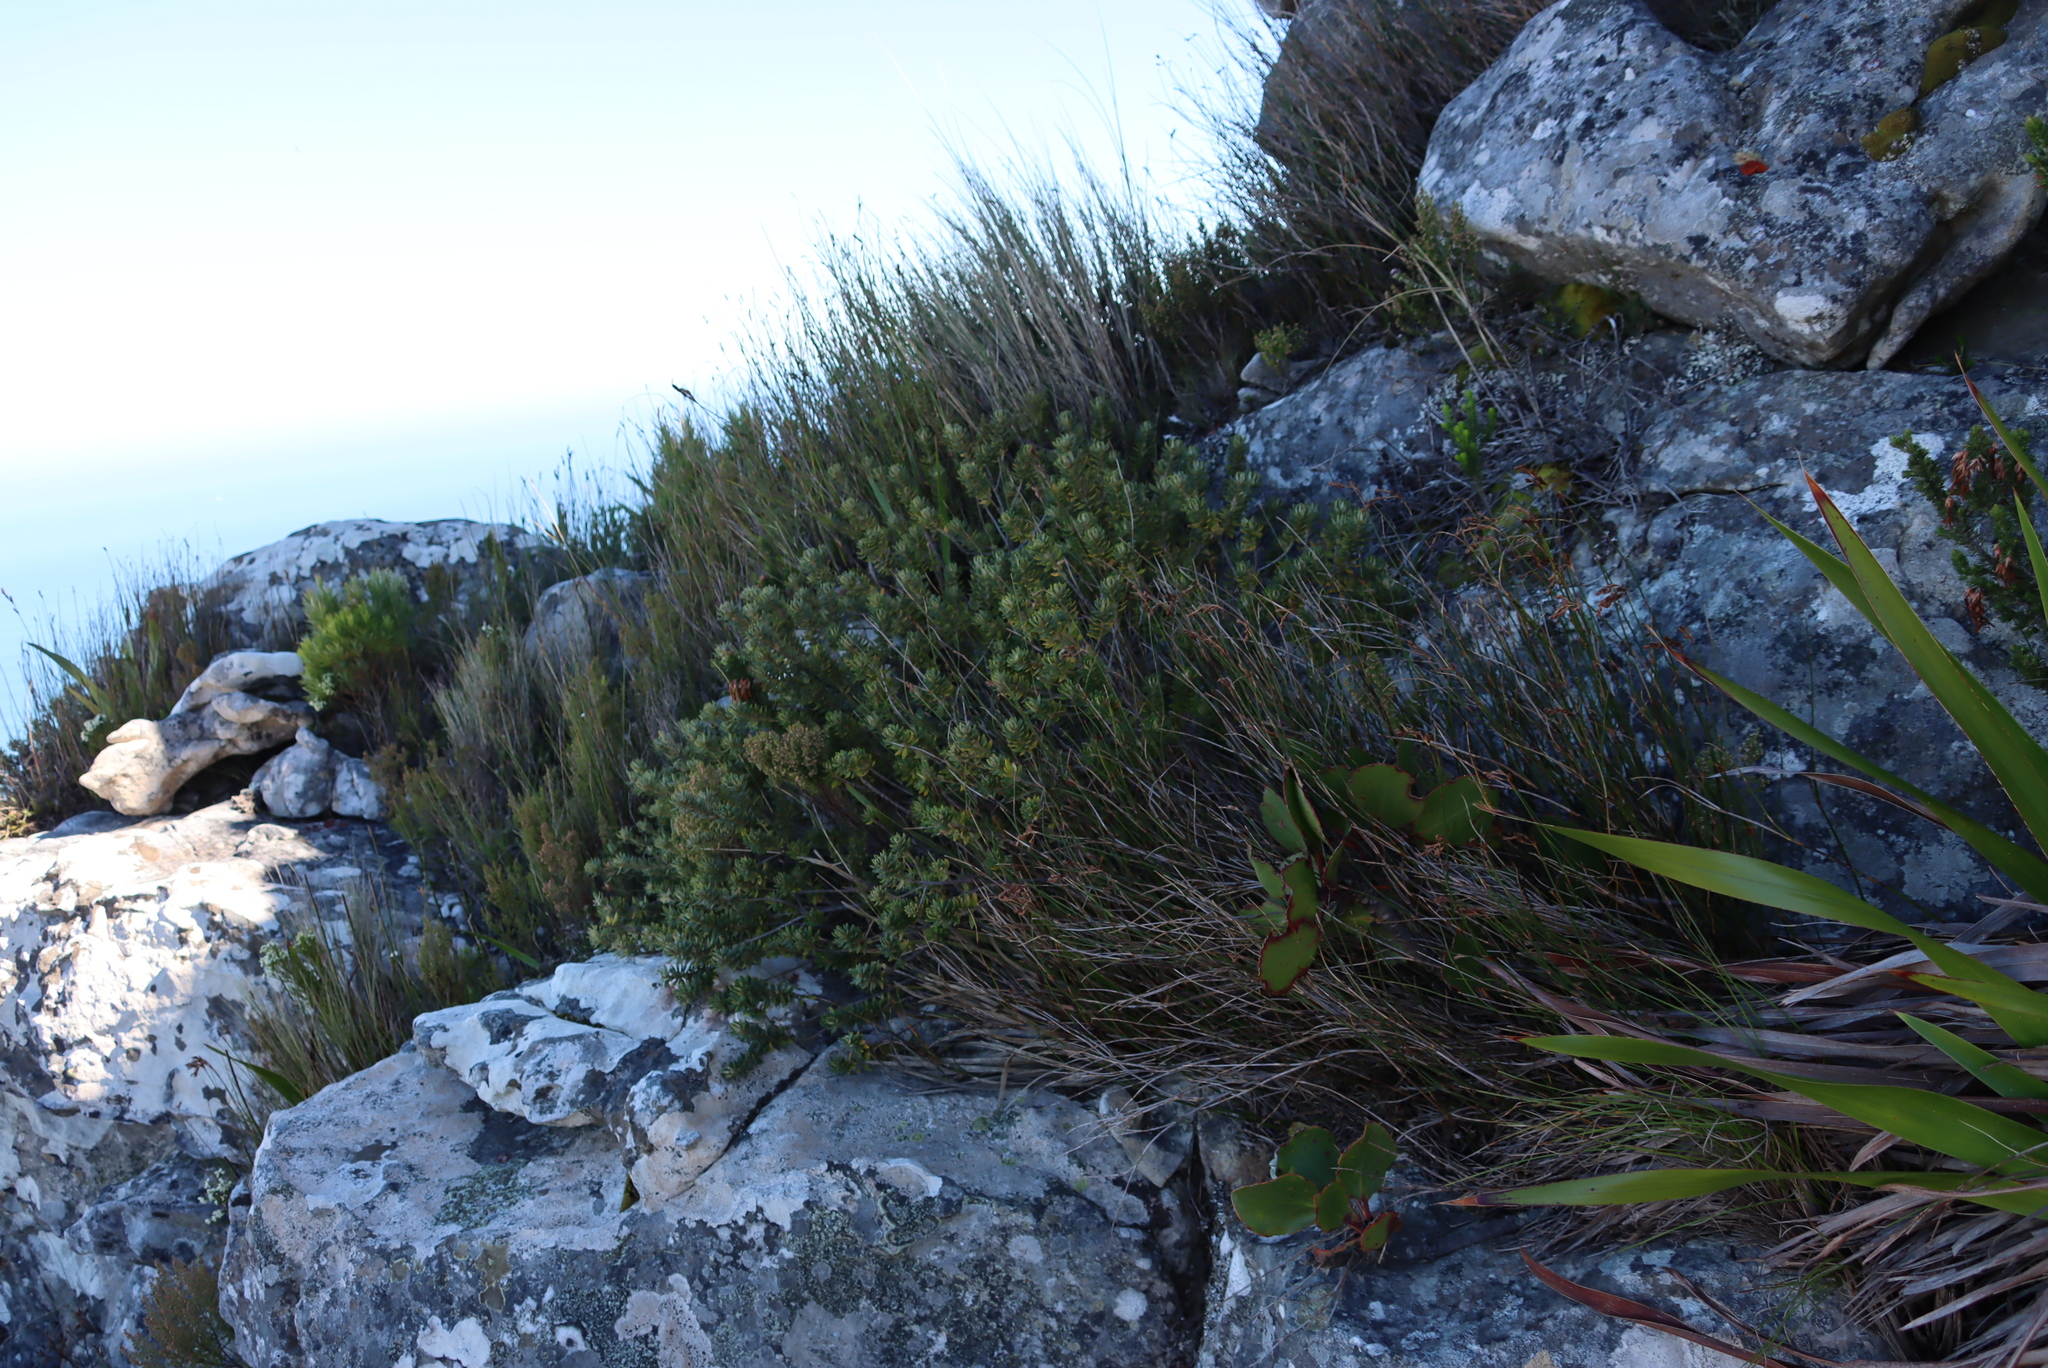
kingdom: Plantae
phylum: Tracheophyta
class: Magnoliopsida
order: Rosales
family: Rhamnaceae
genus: Phylica
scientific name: Phylica dioica
